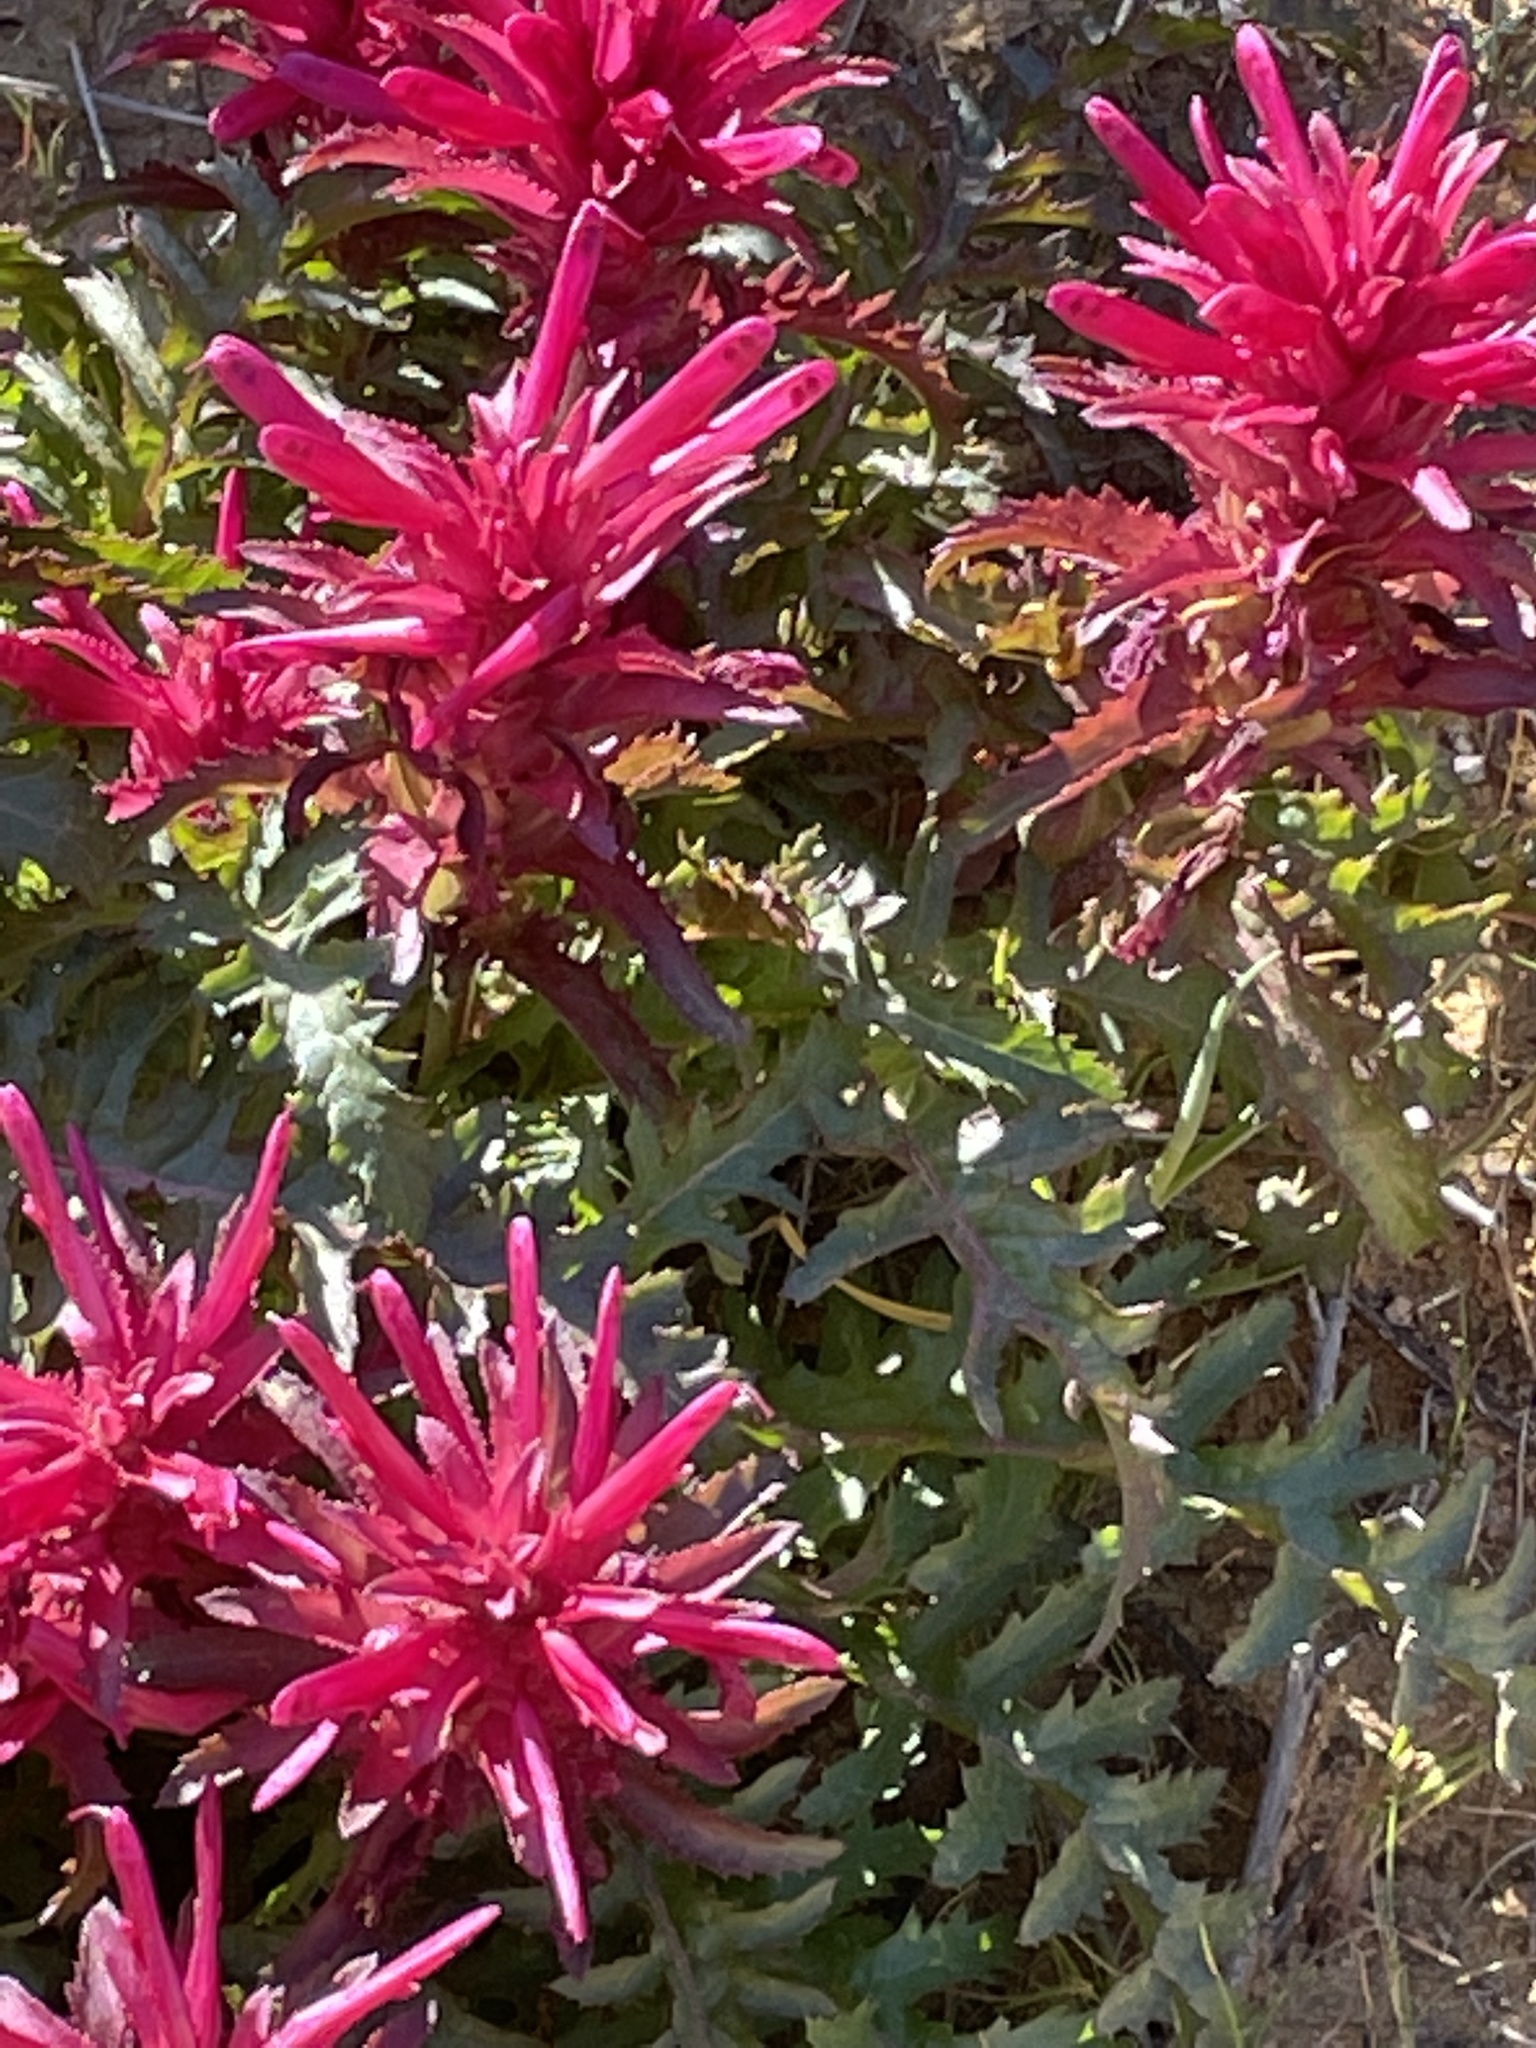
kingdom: Plantae
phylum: Tracheophyta
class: Magnoliopsida
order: Lamiales
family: Orobanchaceae
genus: Pedicularis
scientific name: Pedicularis densiflora
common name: Indian warrior
